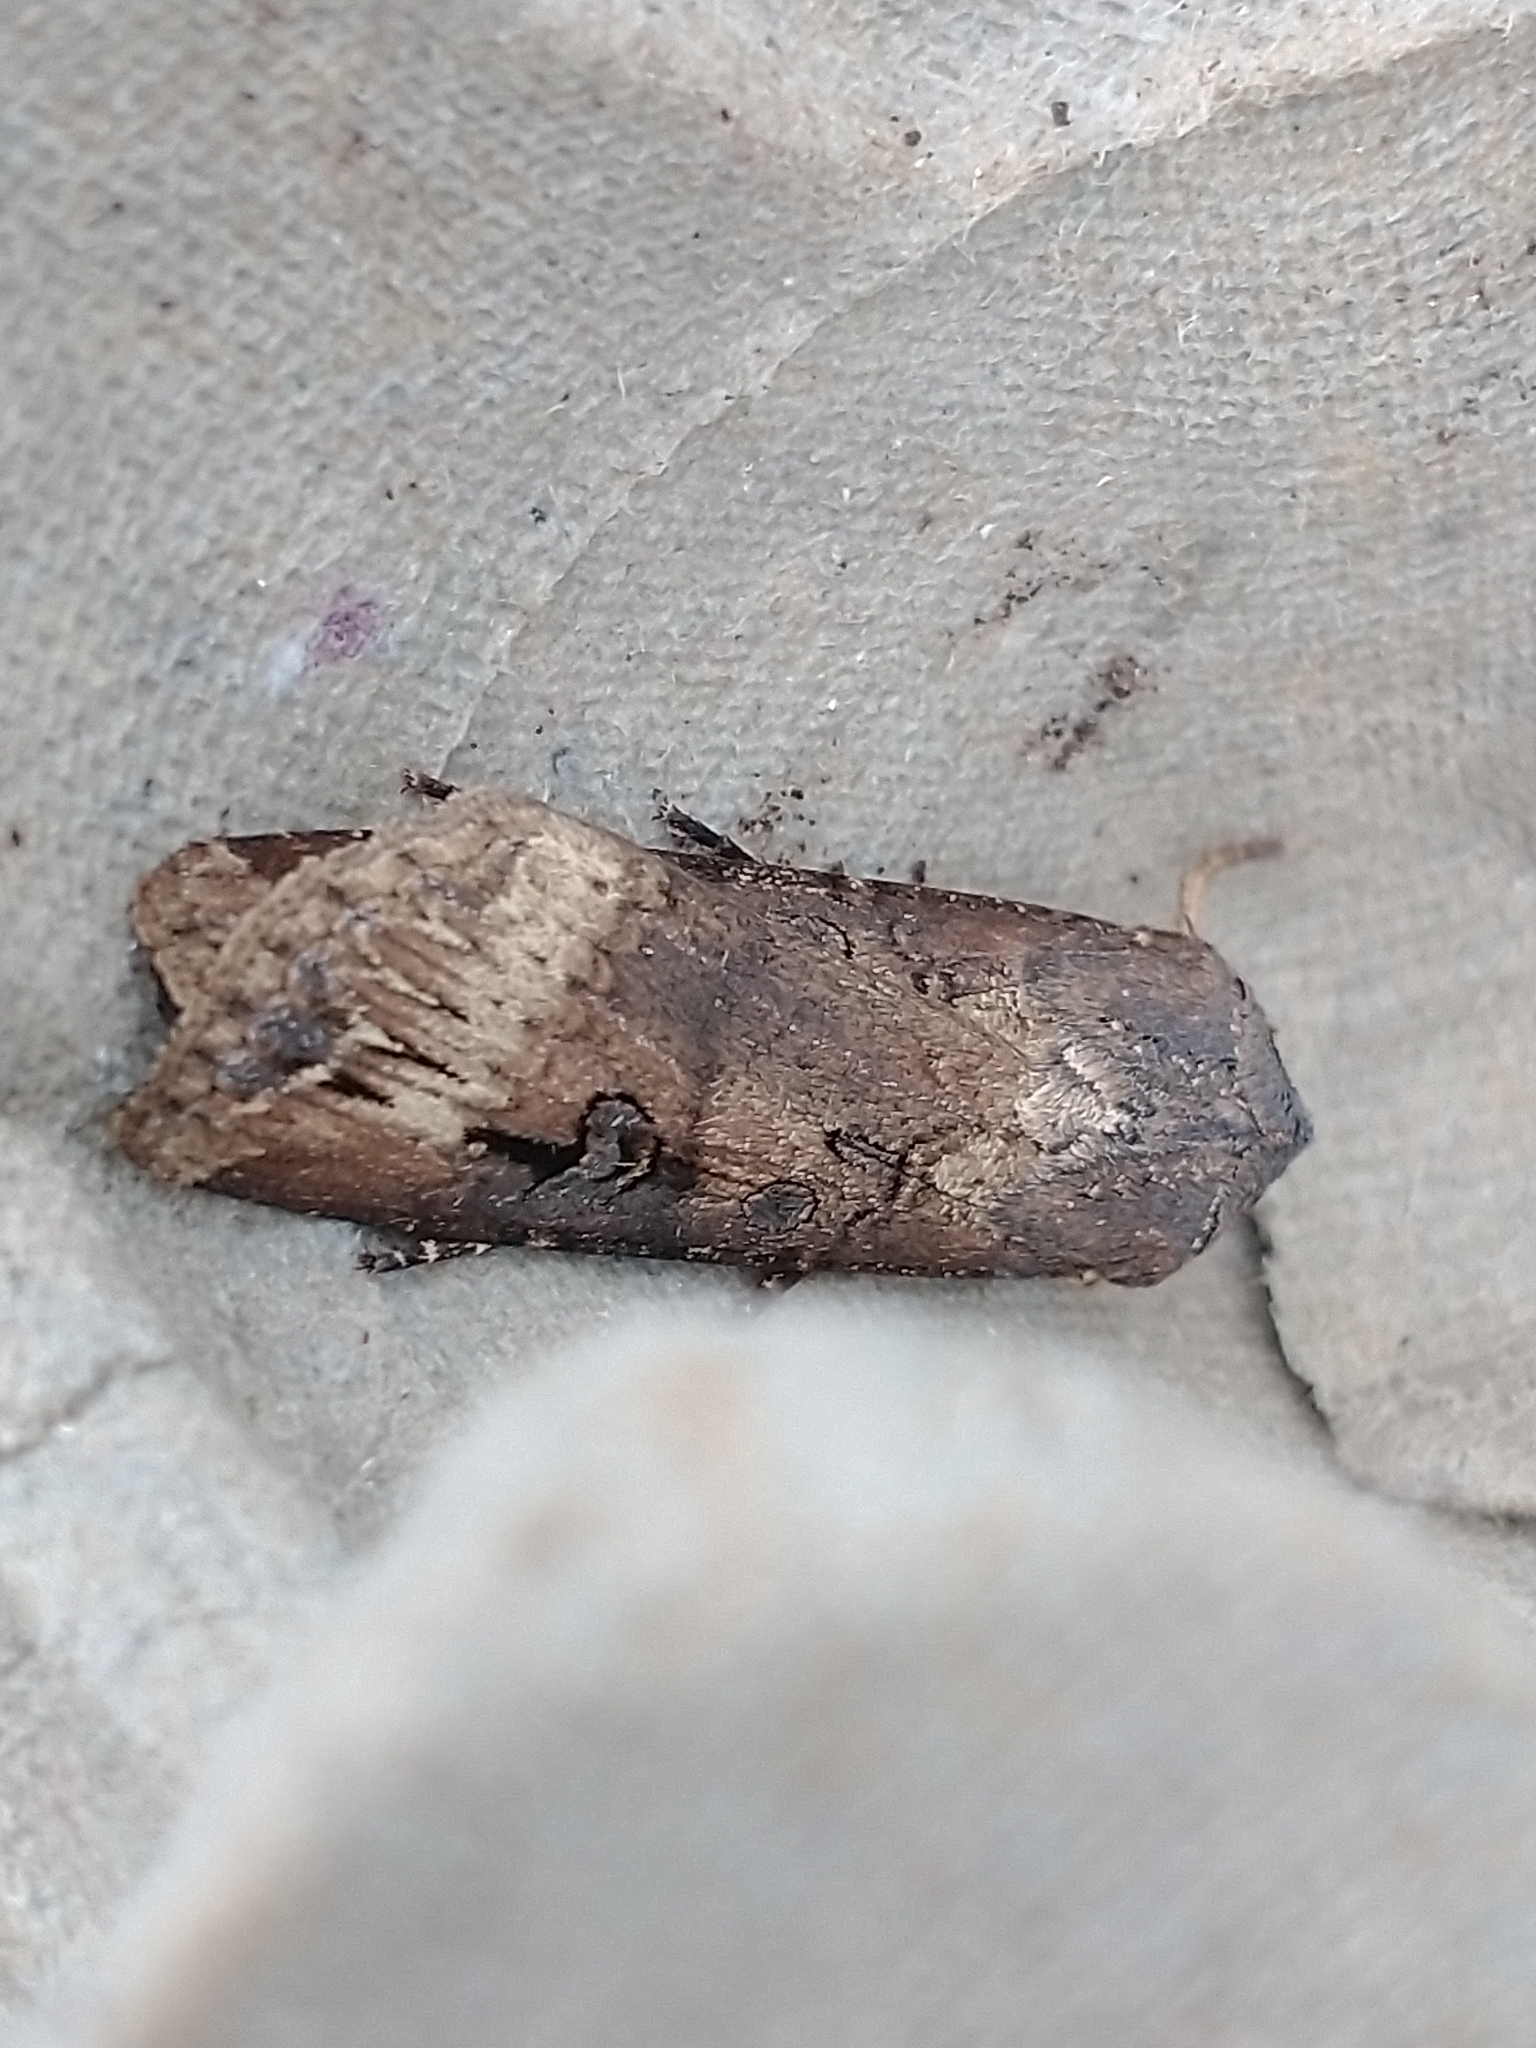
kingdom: Animalia
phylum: Arthropoda
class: Insecta
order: Lepidoptera
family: Noctuidae
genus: Agrotis
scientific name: Agrotis ipsilon
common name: Dark sword-grass
